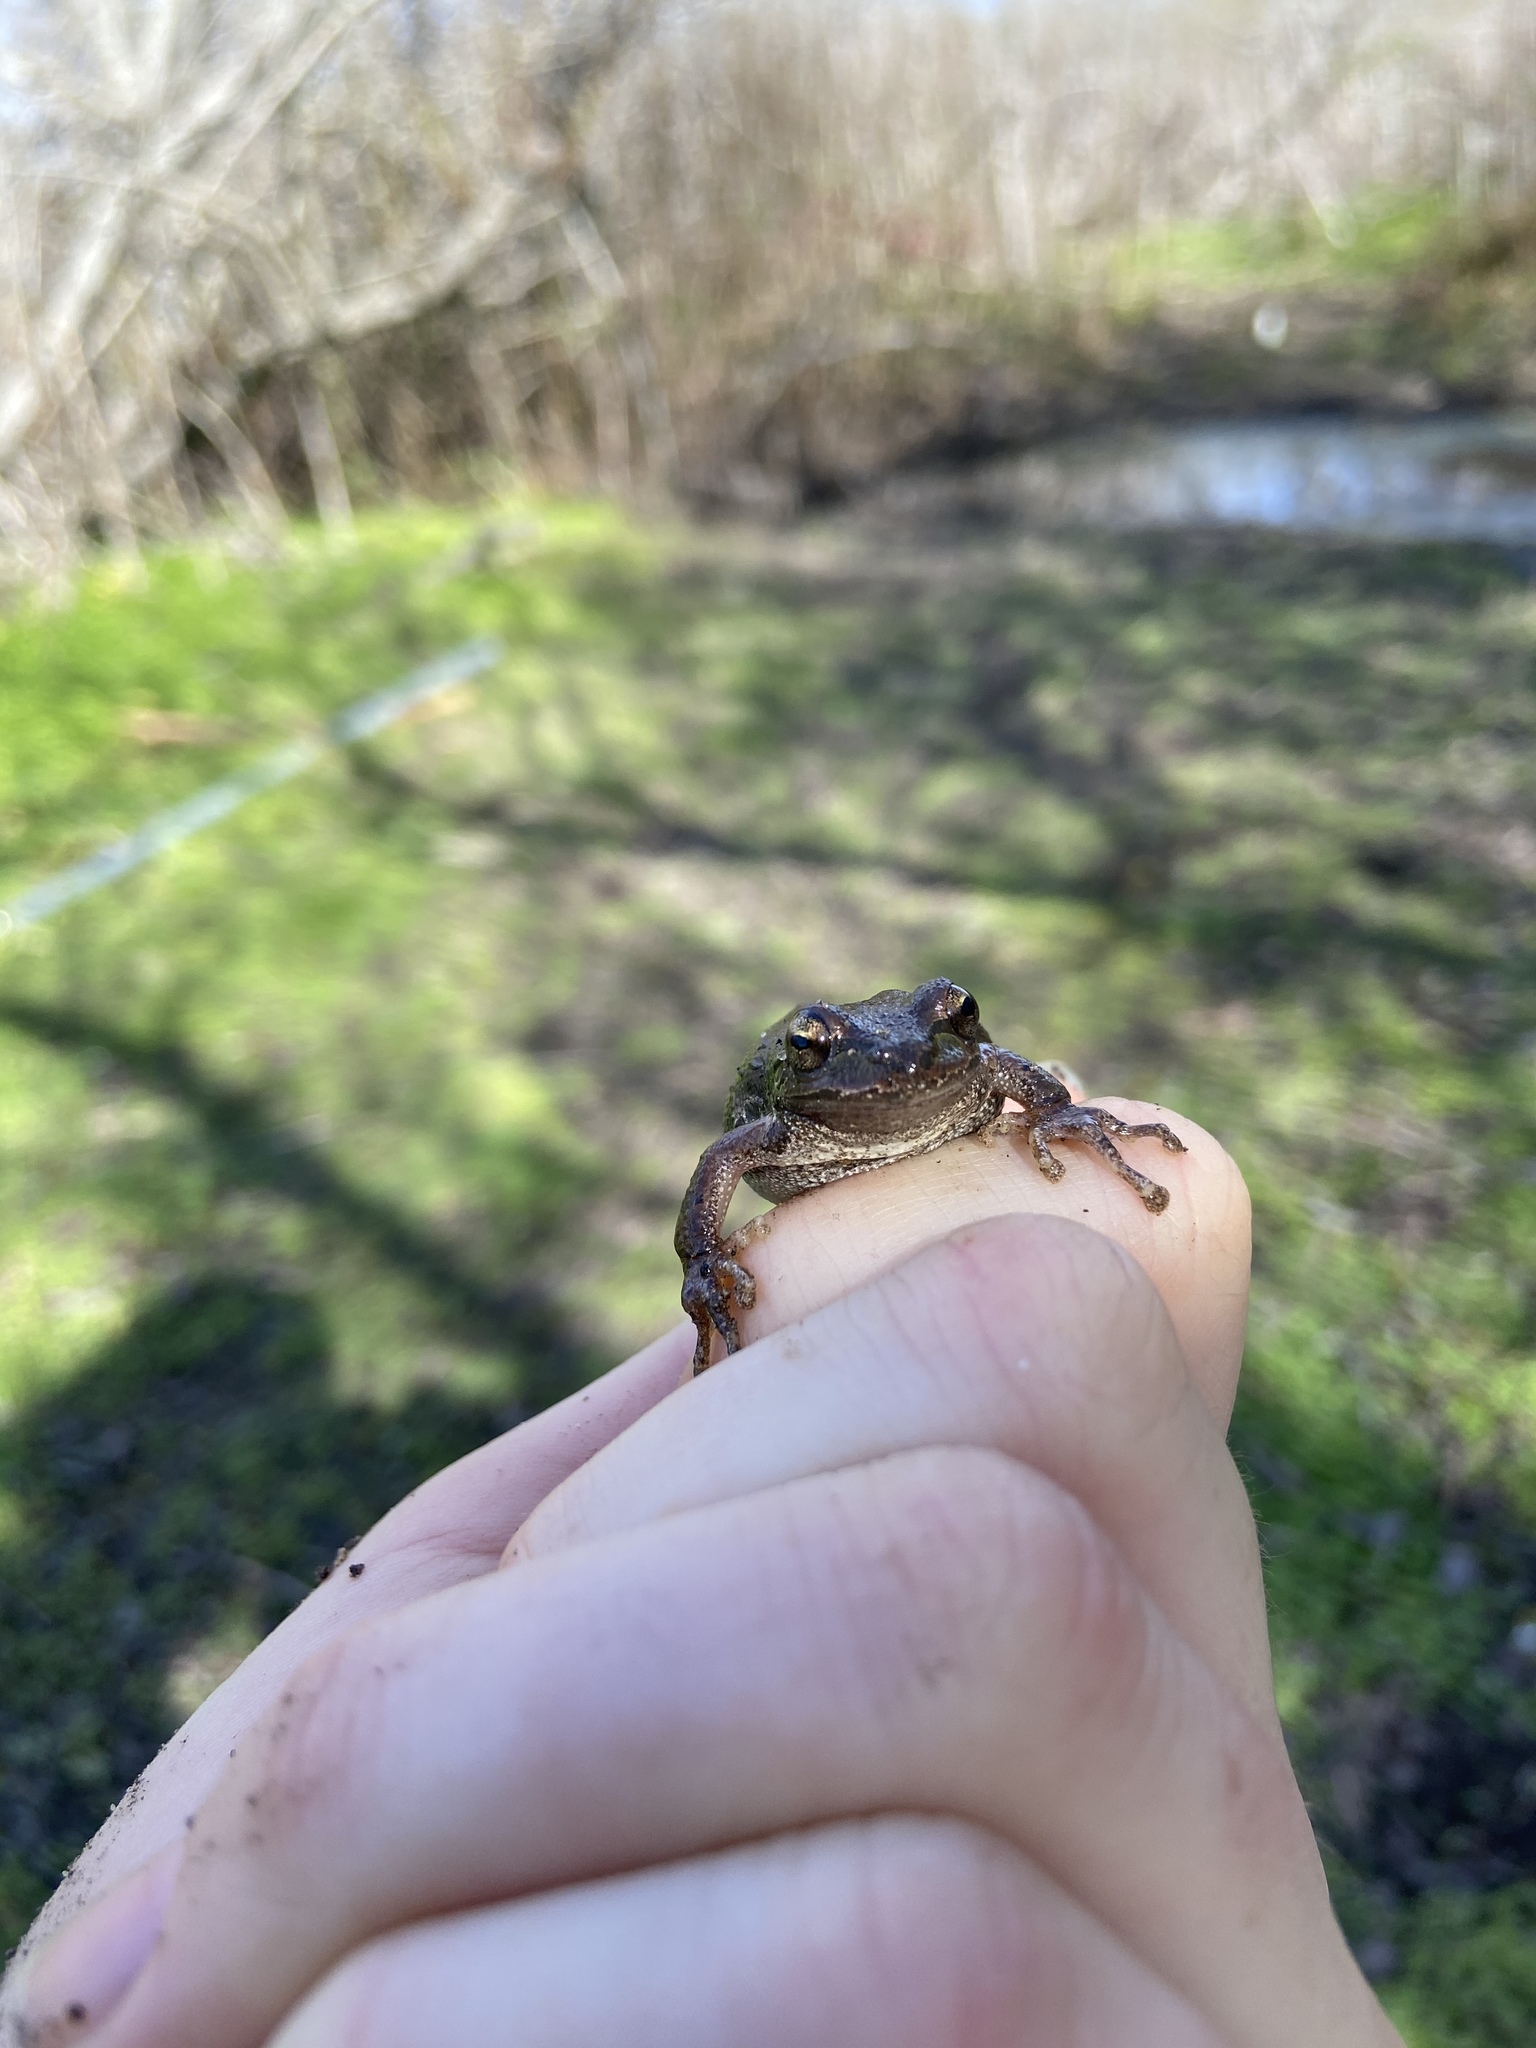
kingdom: Animalia
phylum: Chordata
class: Amphibia
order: Anura
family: Hylidae
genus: Pseudacris
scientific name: Pseudacris regilla
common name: Pacific chorus frog
